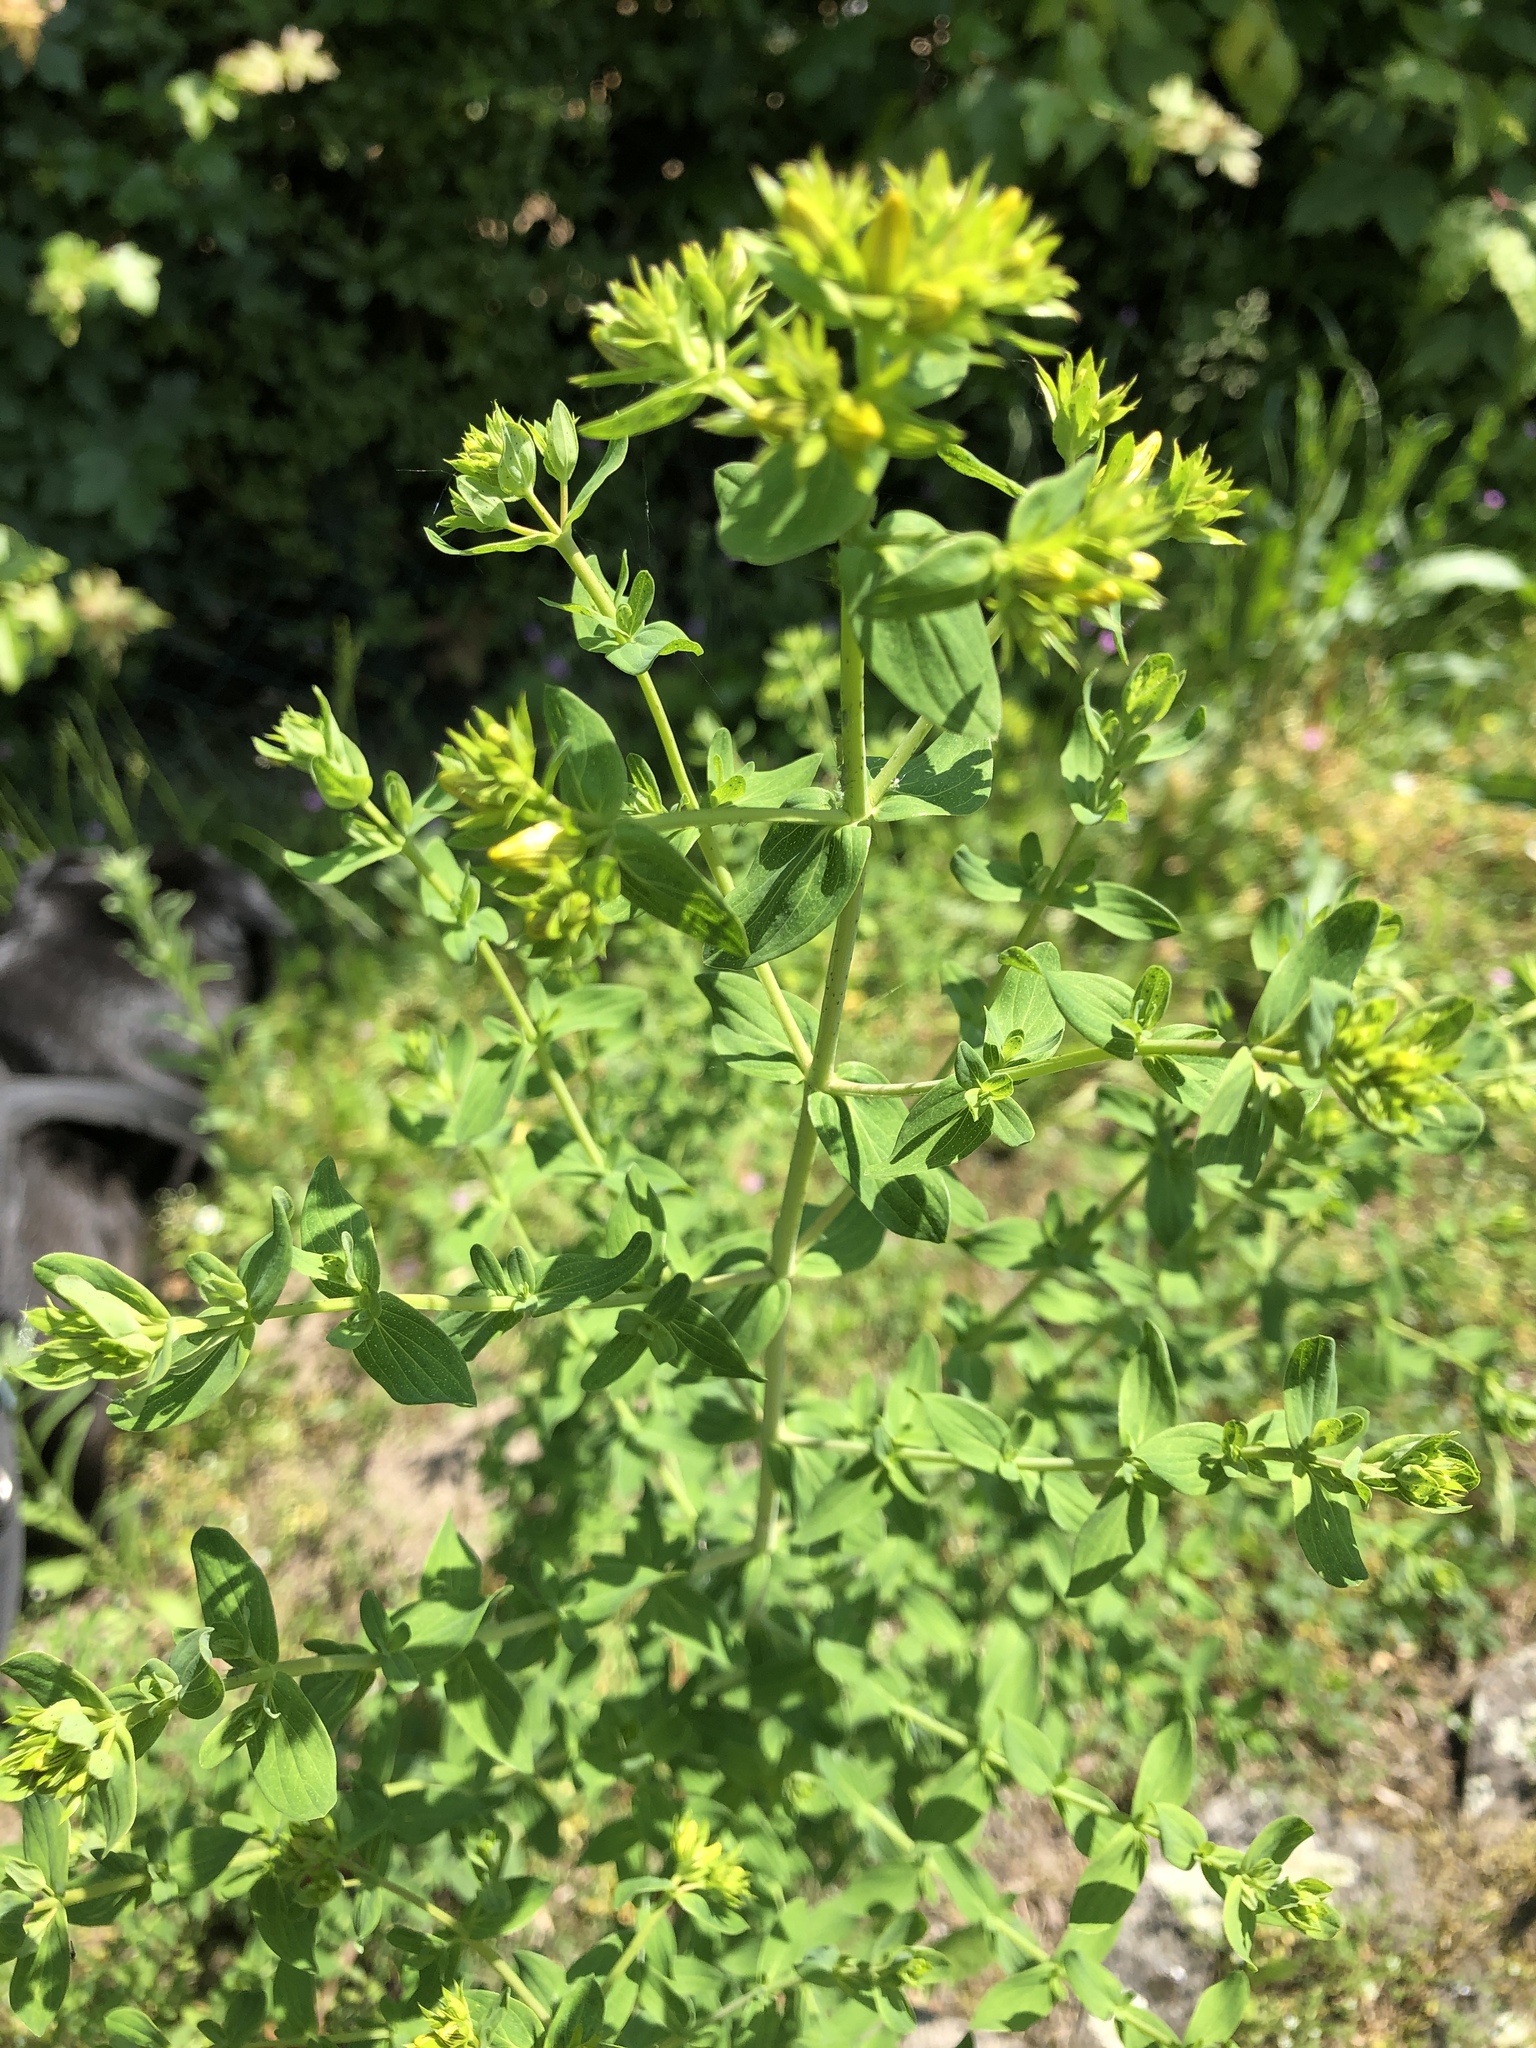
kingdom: Plantae
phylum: Tracheophyta
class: Magnoliopsida
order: Malpighiales
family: Hypericaceae
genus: Hypericum
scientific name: Hypericum perforatum
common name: Common st. johnswort
